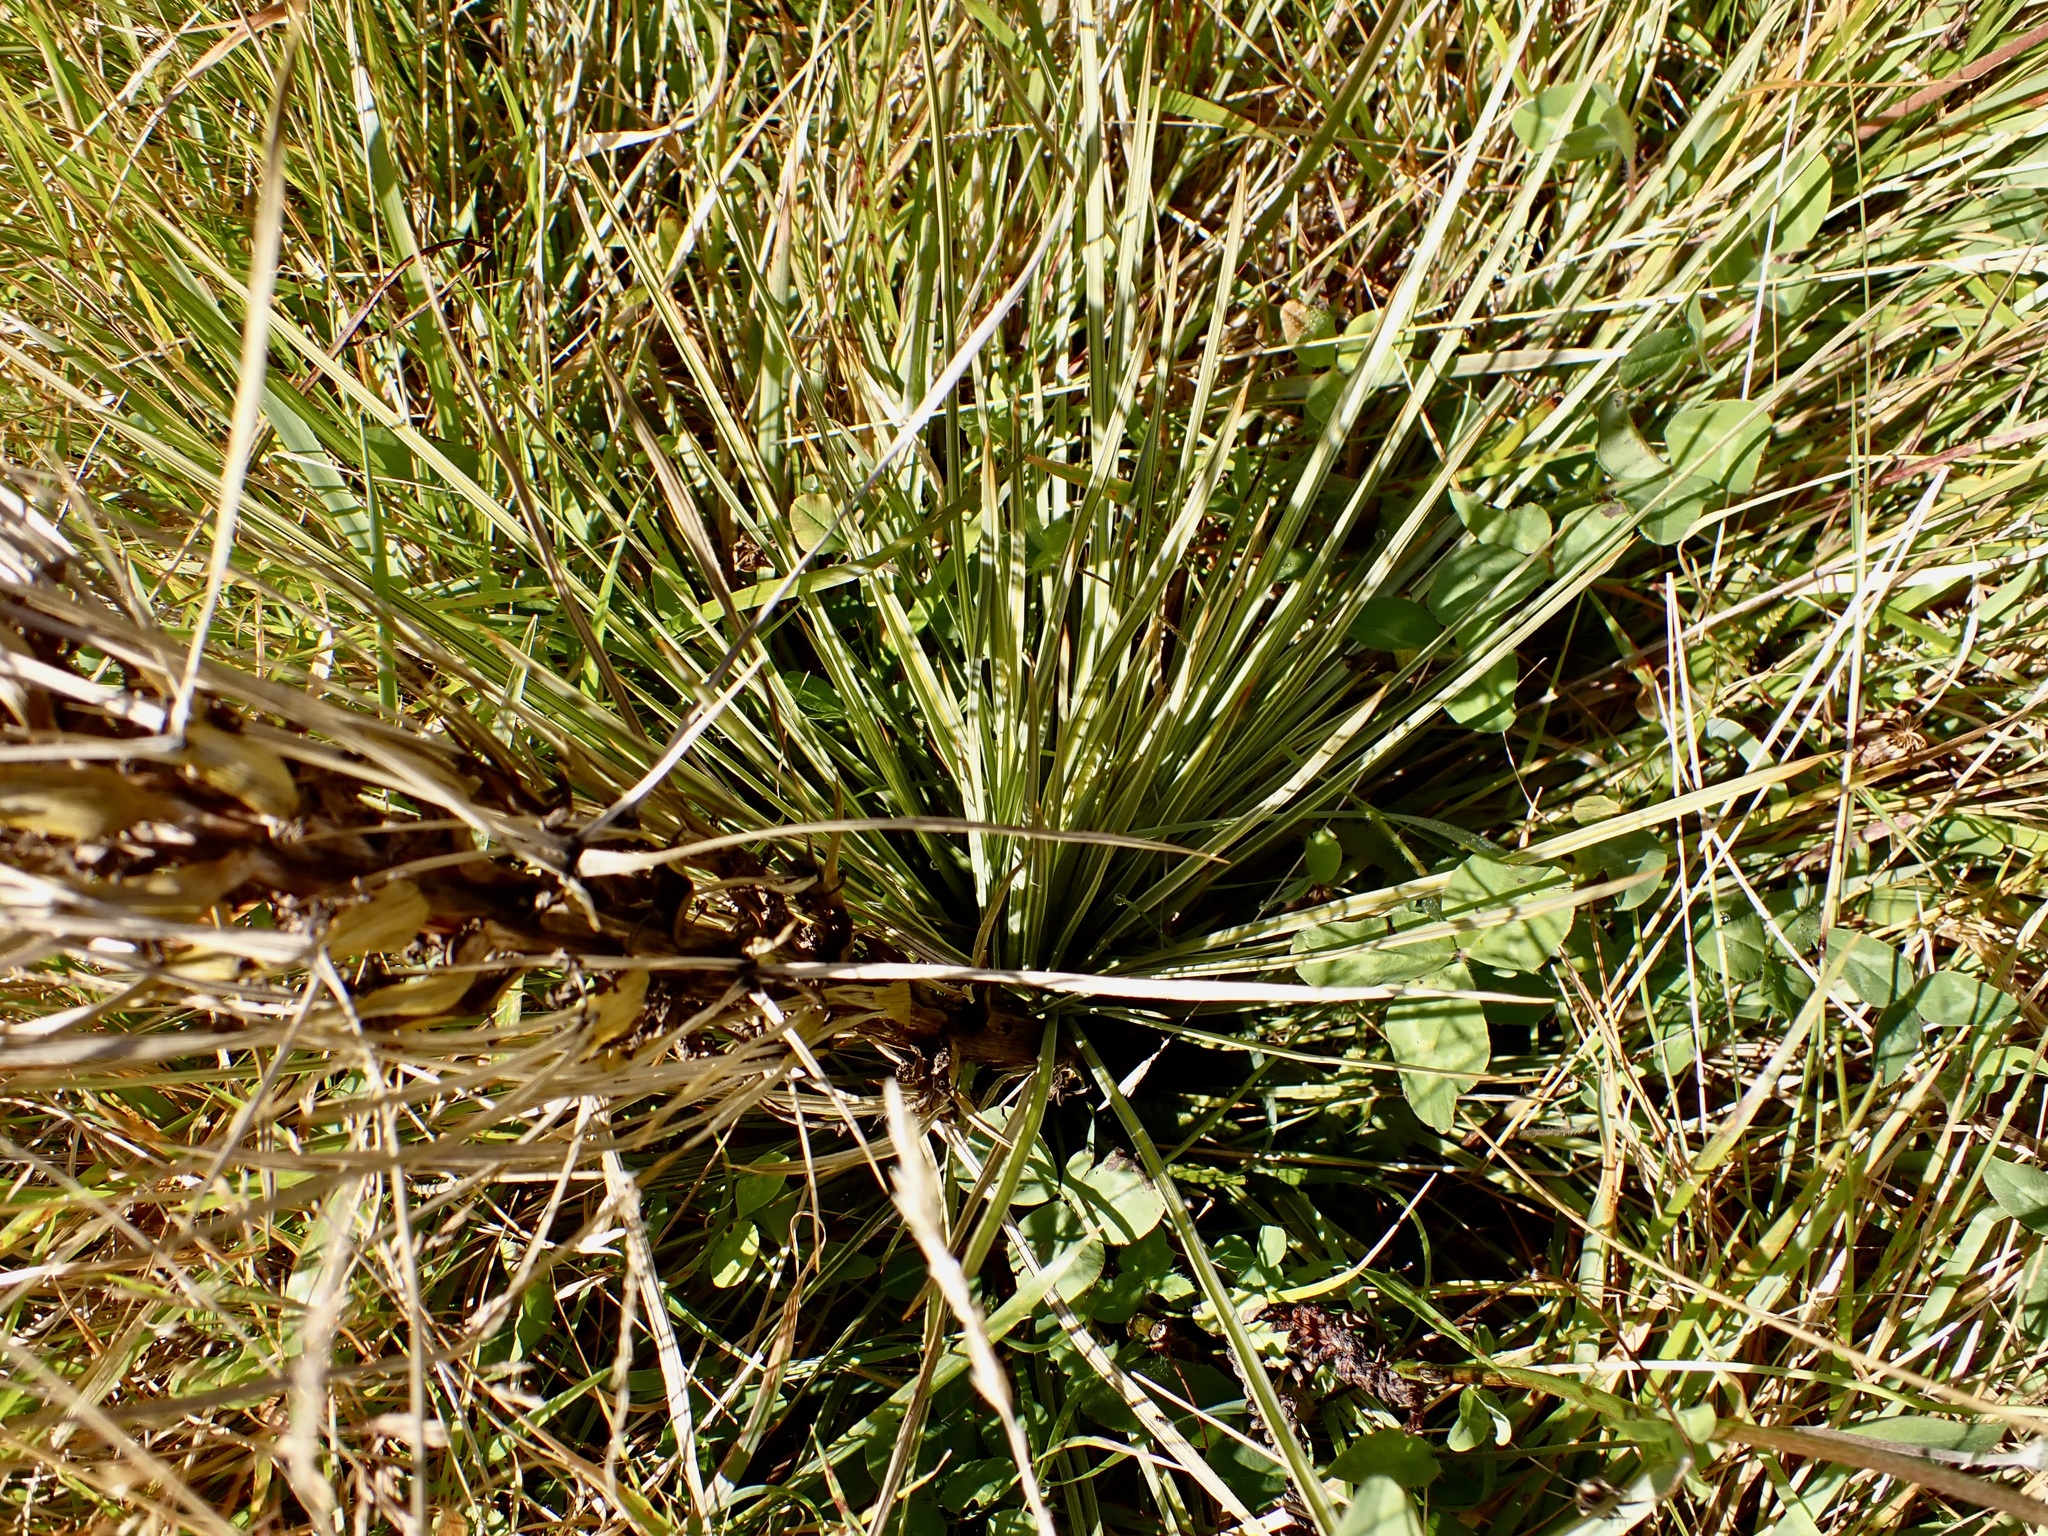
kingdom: Plantae
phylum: Tracheophyta
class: Magnoliopsida
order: Apiales
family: Apiaceae
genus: Aciphylla
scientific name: Aciphylla subflabellata
